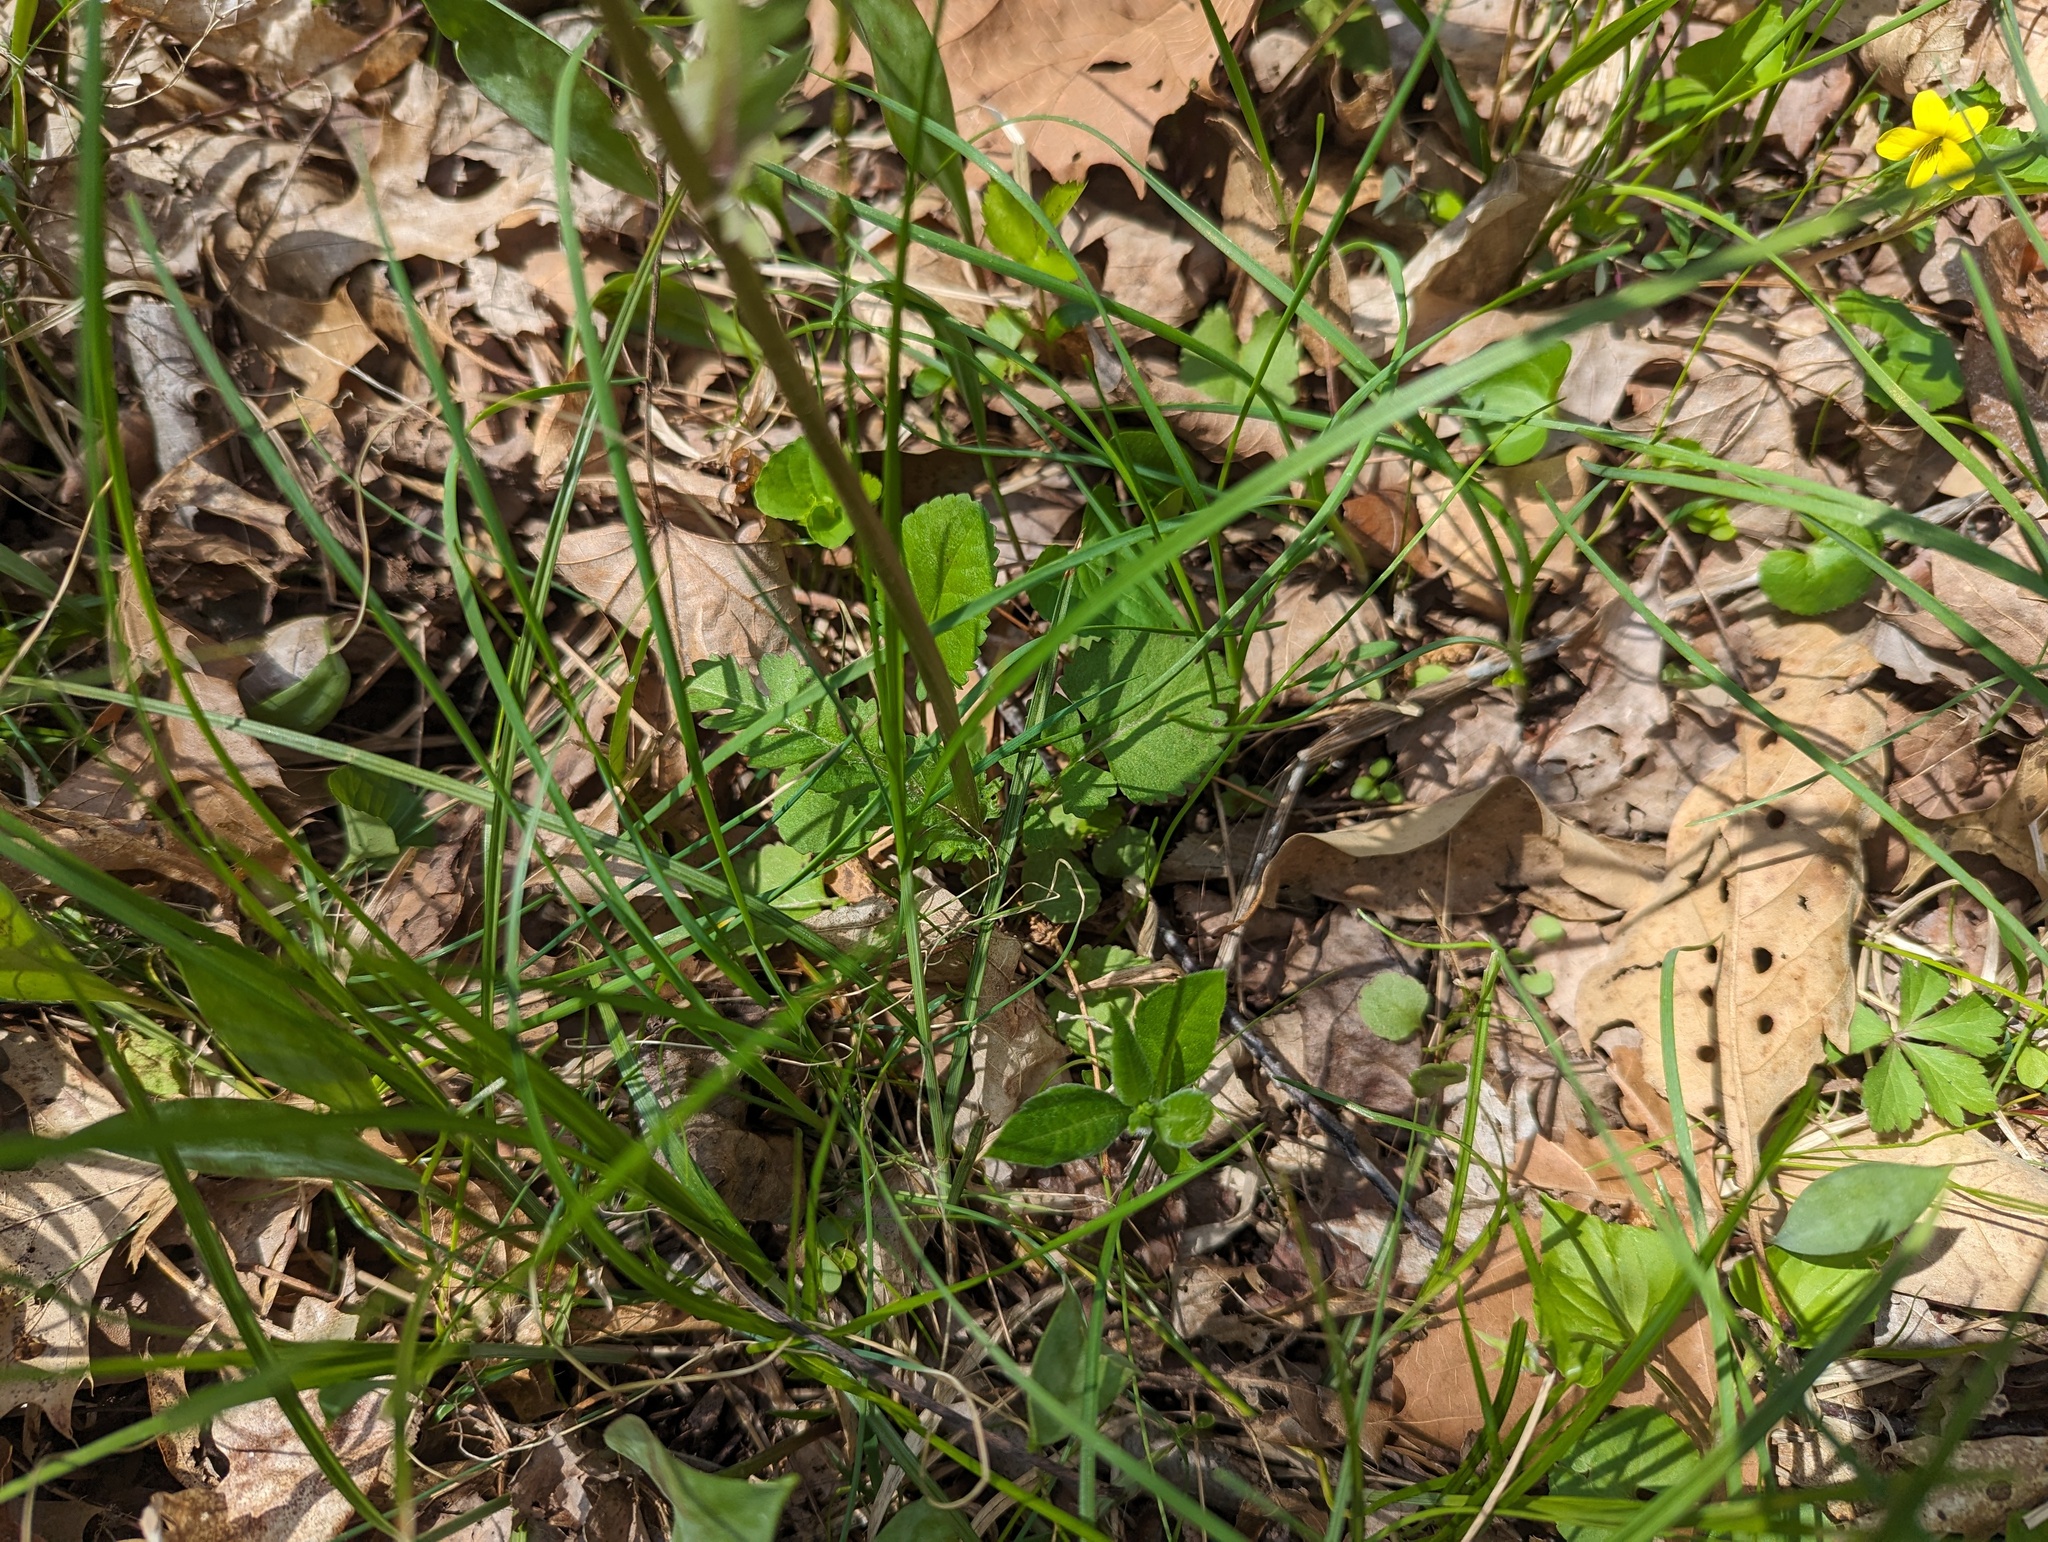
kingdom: Plantae
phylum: Tracheophyta
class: Magnoliopsida
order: Asterales
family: Asteraceae
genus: Packera
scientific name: Packera aurea
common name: Golden groundsel
